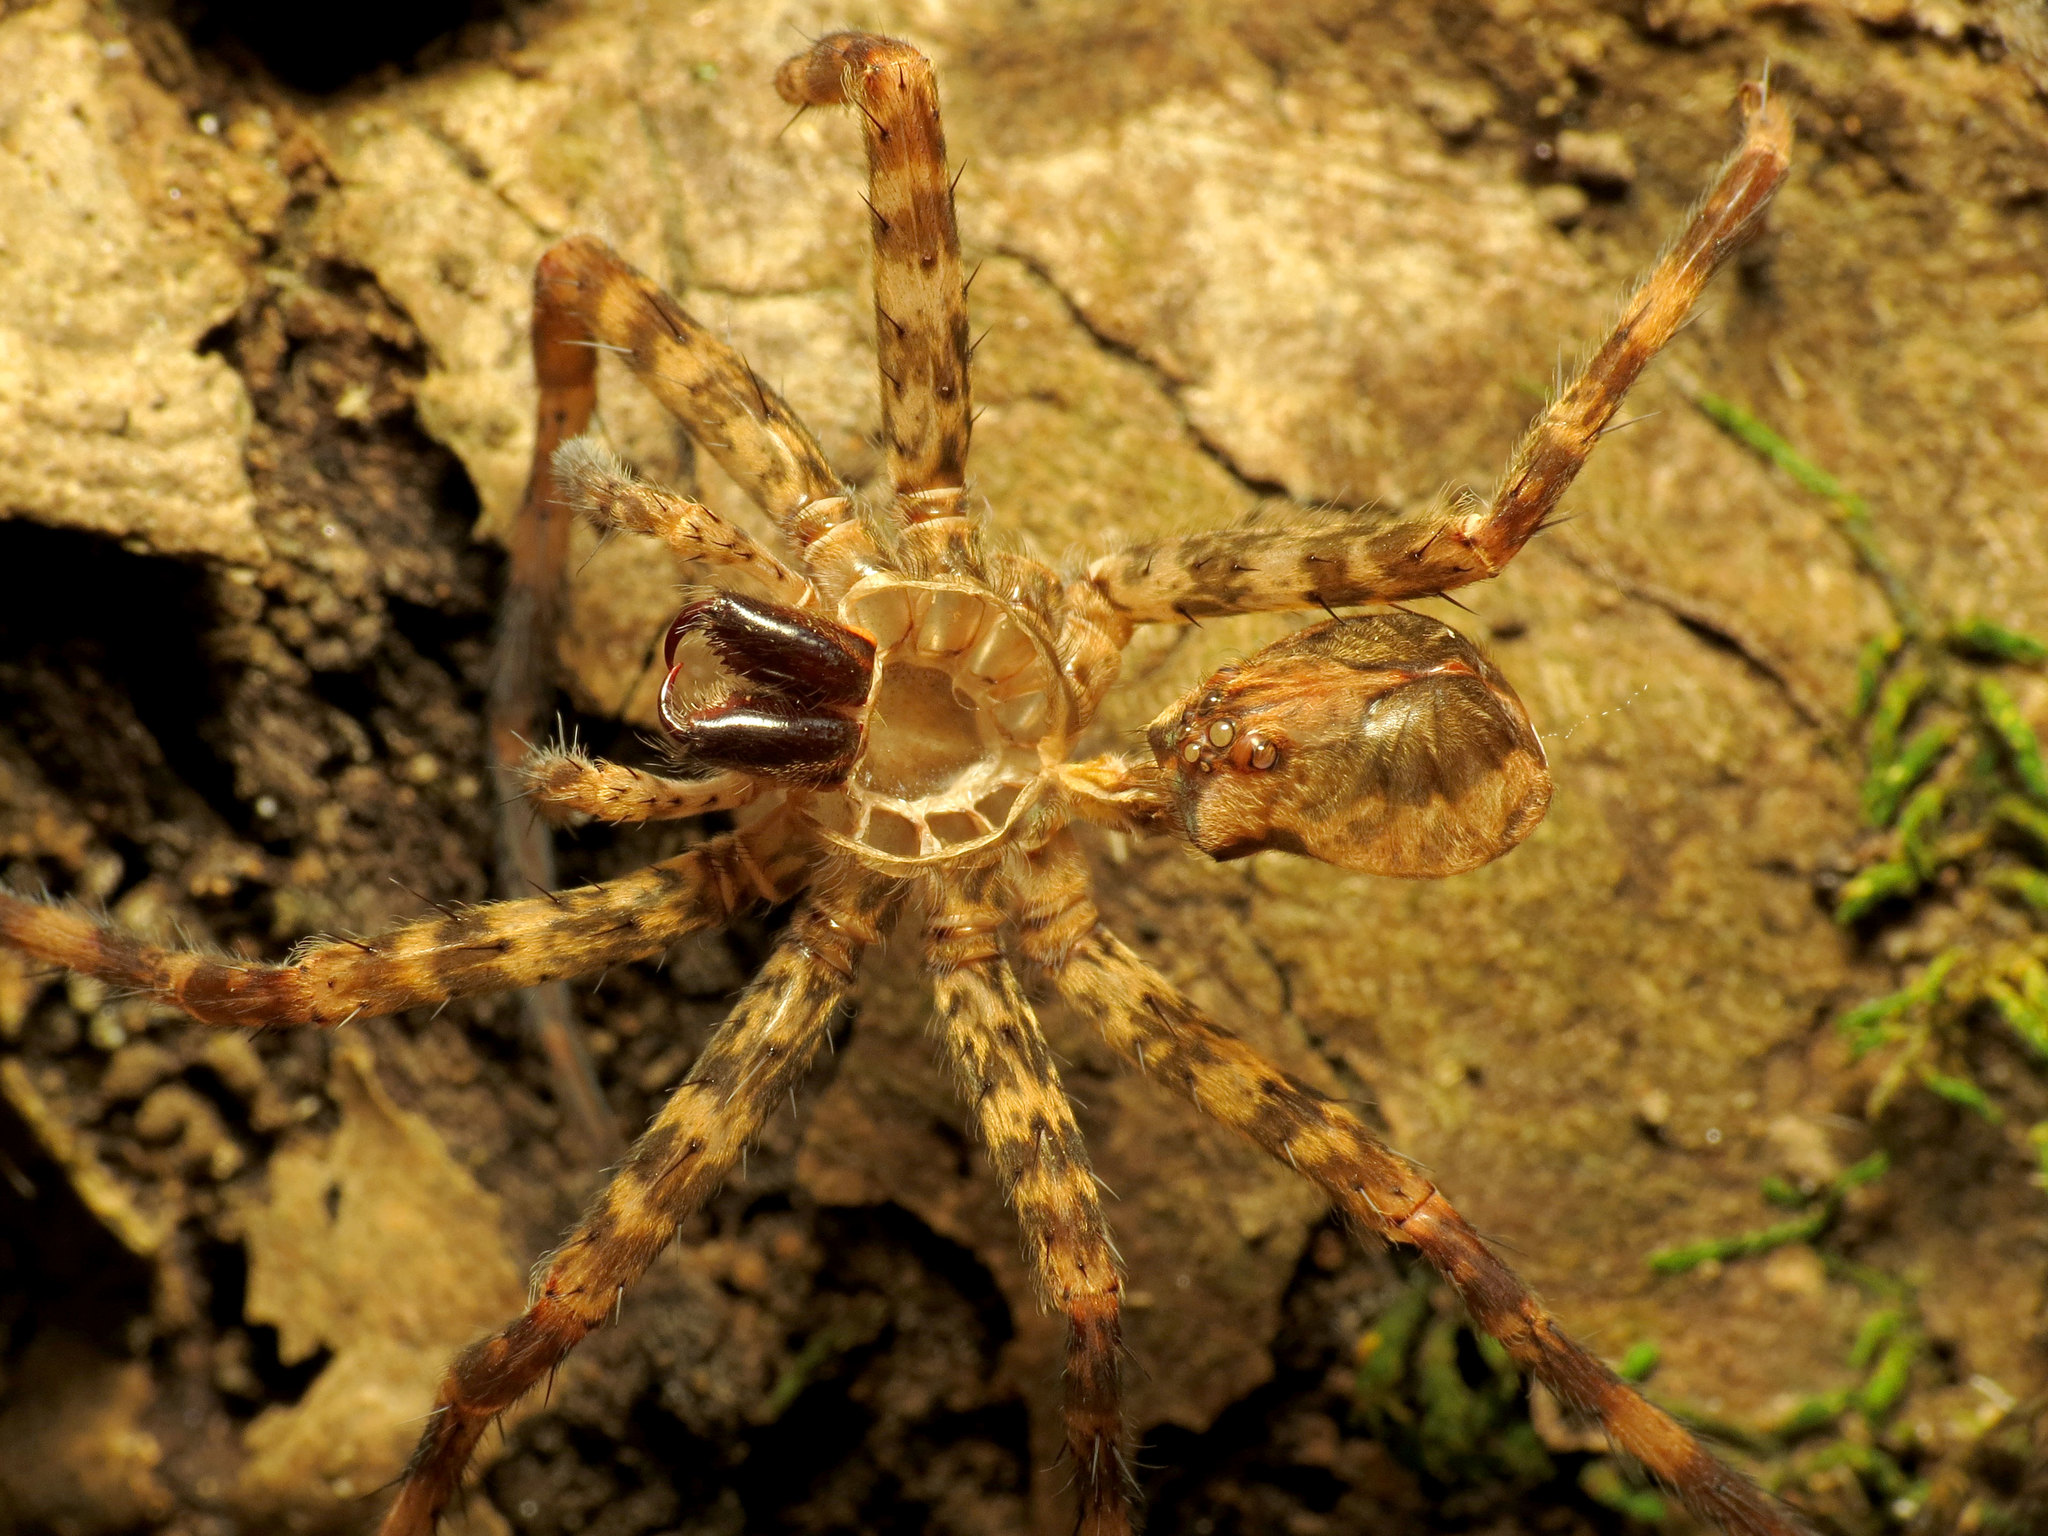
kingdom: Animalia
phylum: Arthropoda
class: Arachnida
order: Araneae
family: Pisauridae
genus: Dolomedes
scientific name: Dolomedes tenebrosus
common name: Dark fishing spider
